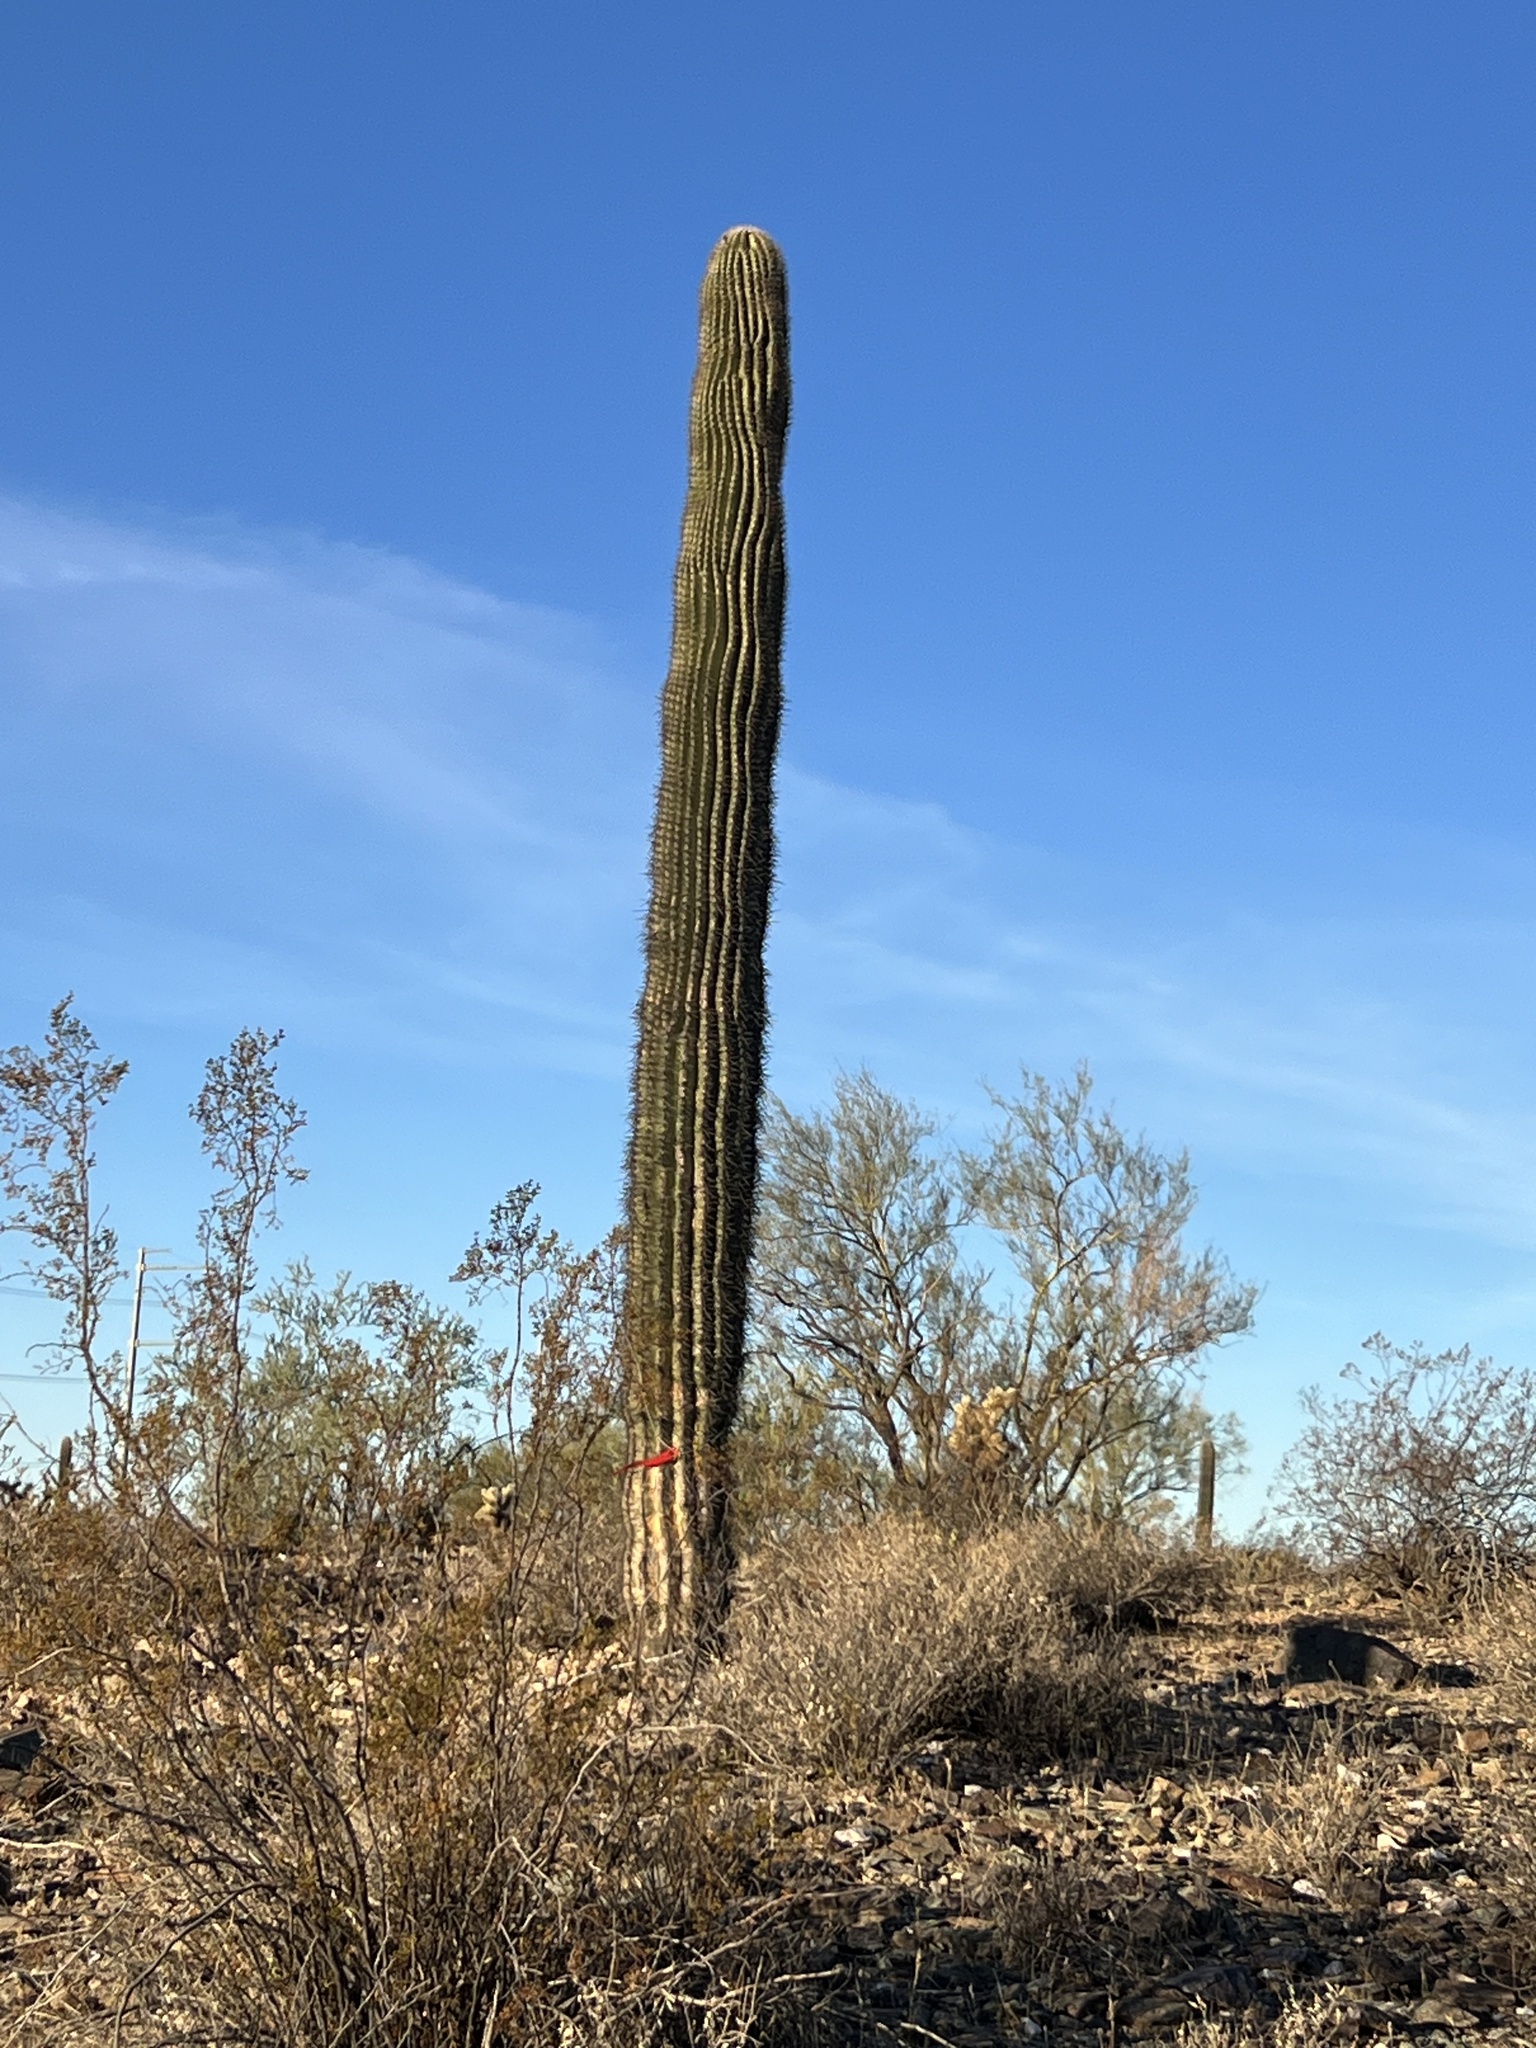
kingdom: Plantae
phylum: Tracheophyta
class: Magnoliopsida
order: Caryophyllales
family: Cactaceae
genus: Carnegiea
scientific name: Carnegiea gigantea
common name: Saguaro
